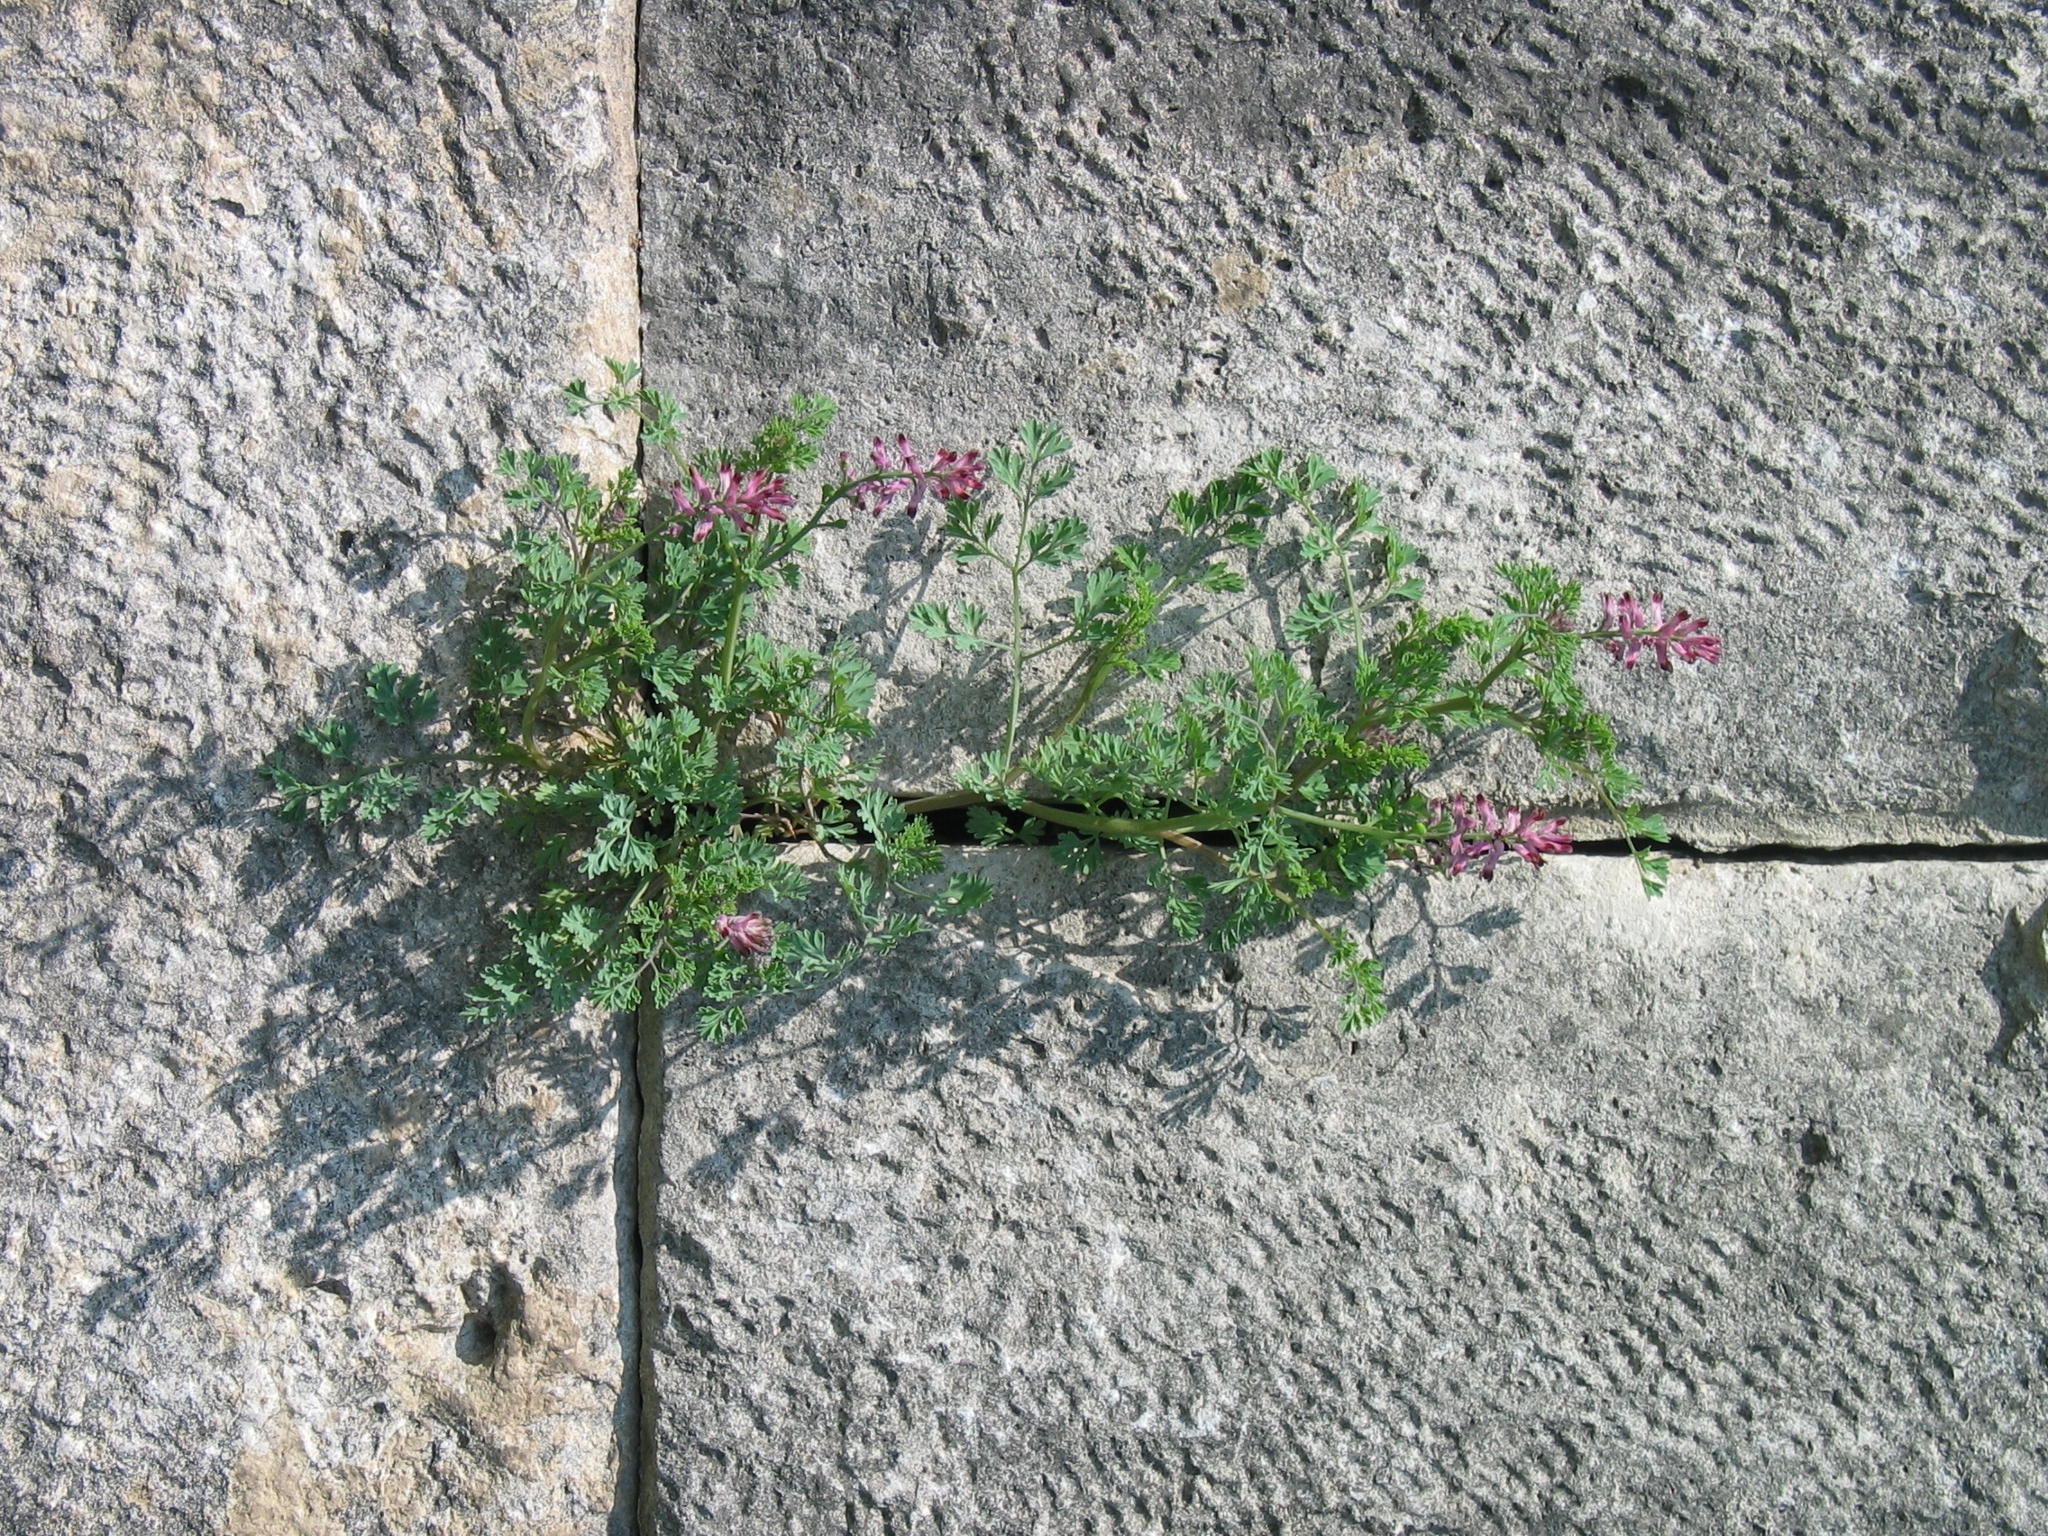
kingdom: Plantae
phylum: Tracheophyta
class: Magnoliopsida
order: Ranunculales
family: Papaveraceae
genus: Fumaria
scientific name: Fumaria officinalis
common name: Common fumitory
